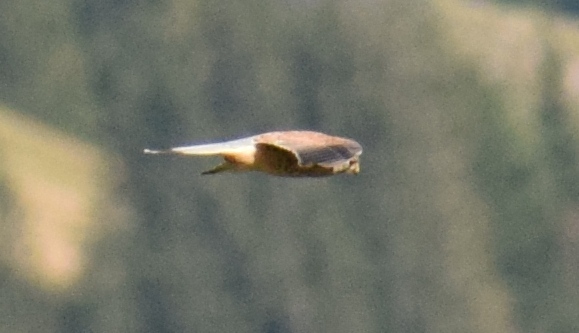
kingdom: Animalia
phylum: Chordata
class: Aves
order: Falconiformes
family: Falconidae
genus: Falco
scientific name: Falco tinnunculus
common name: Common kestrel
